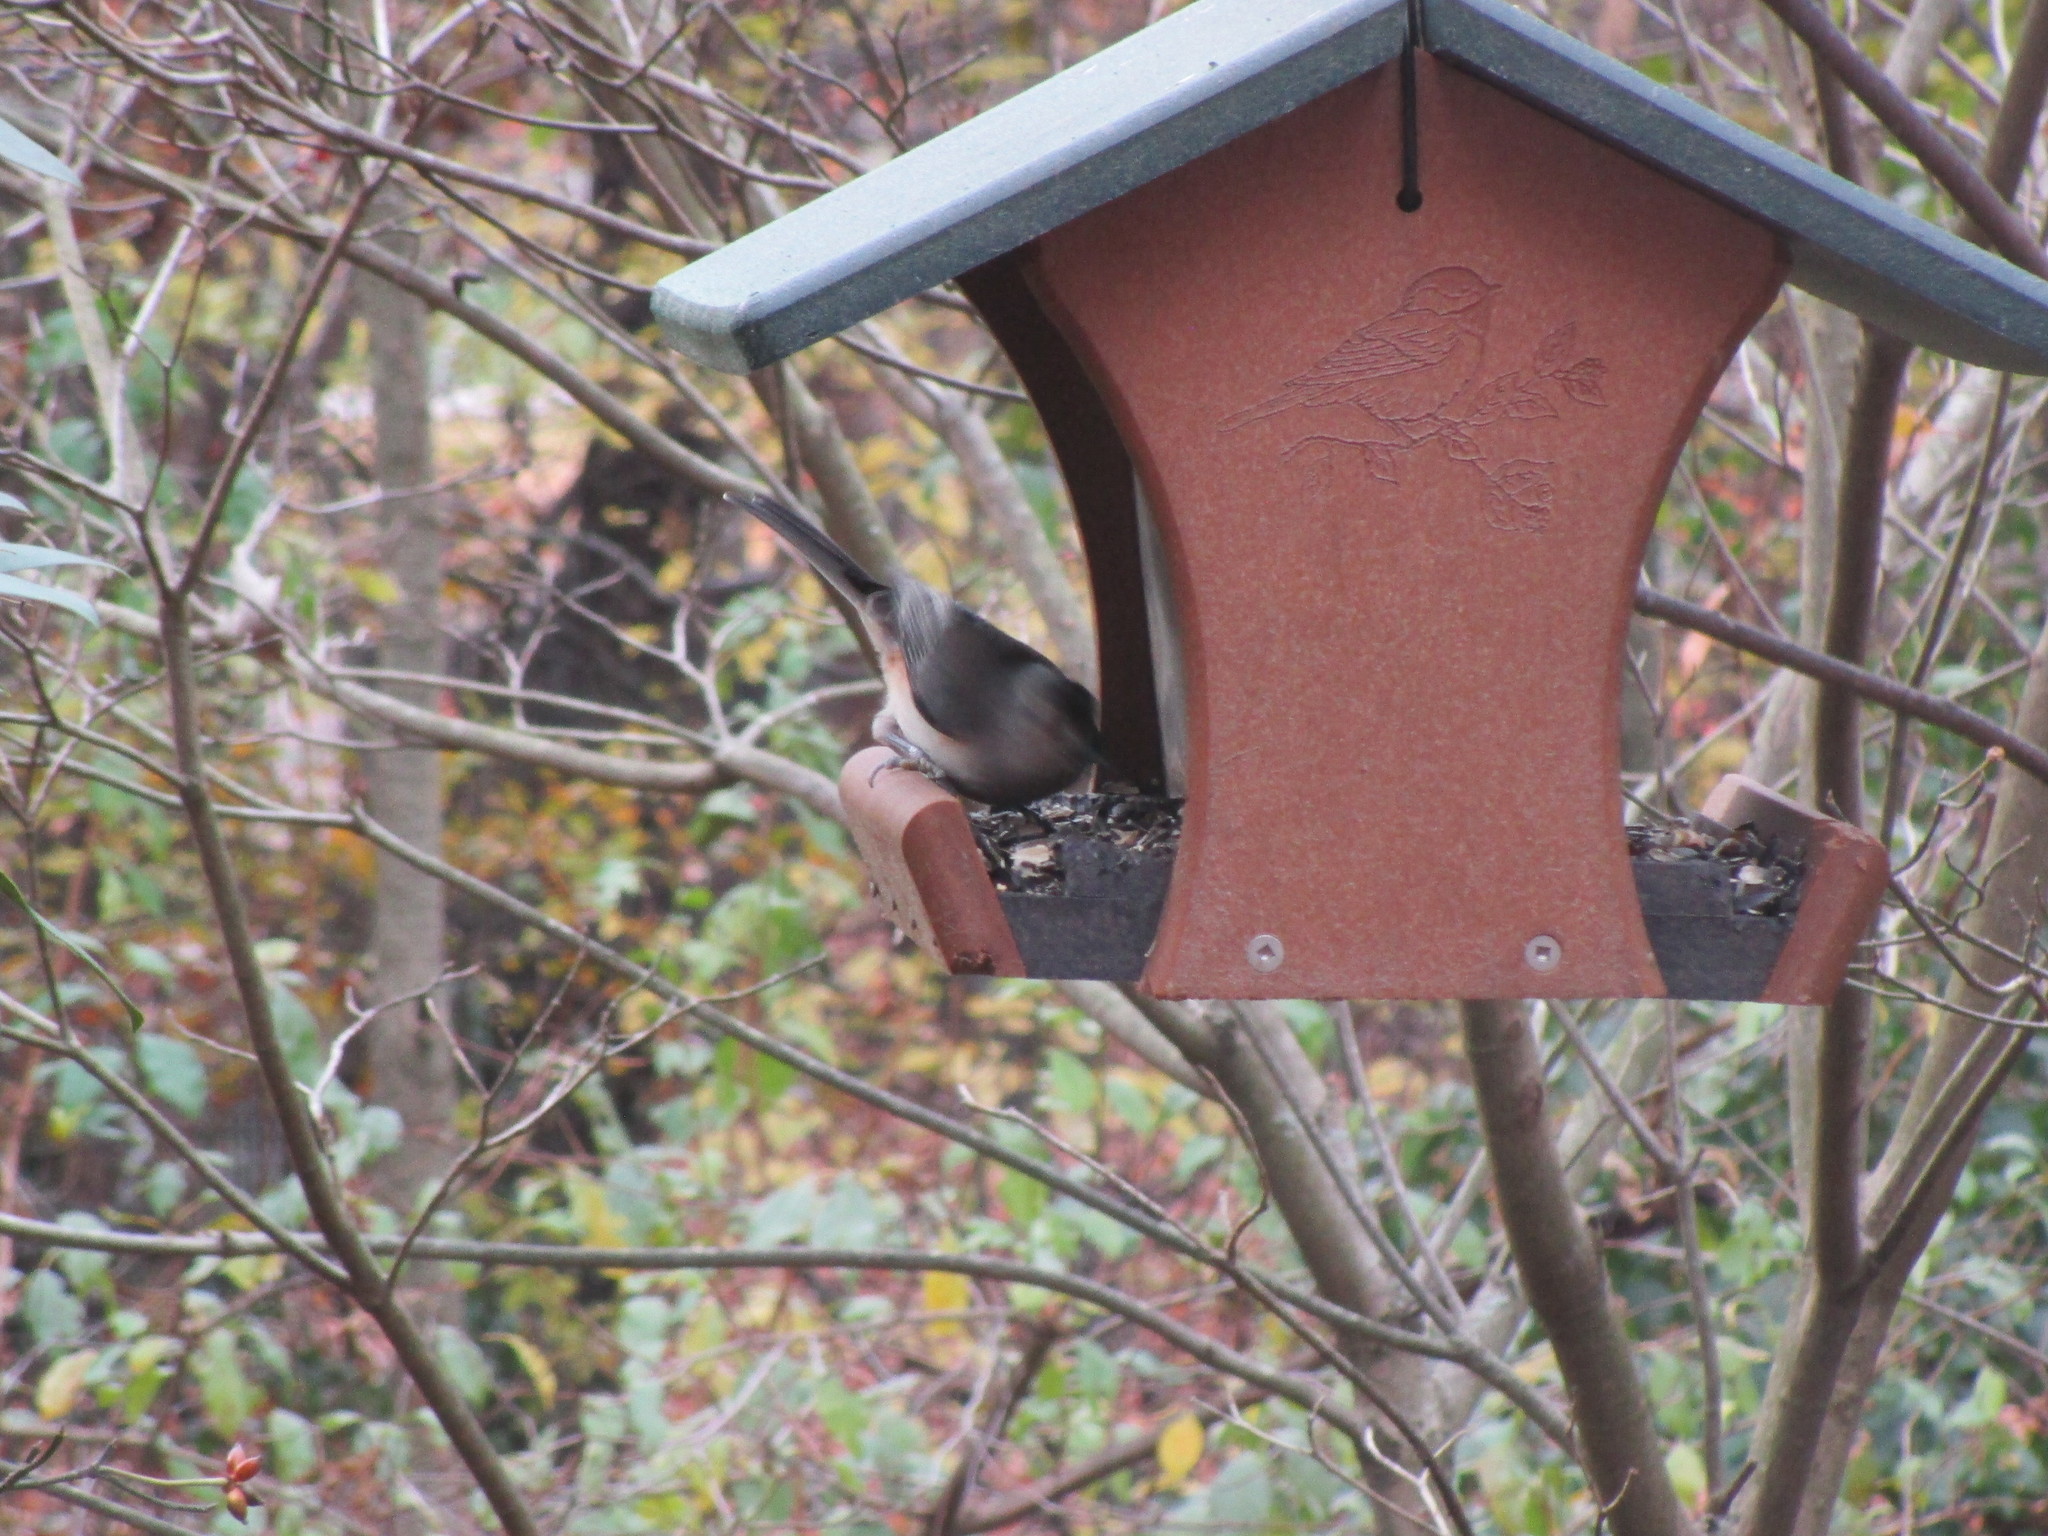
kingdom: Animalia
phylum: Chordata
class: Aves
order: Passeriformes
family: Paridae
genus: Baeolophus
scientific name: Baeolophus bicolor
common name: Tufted titmouse
